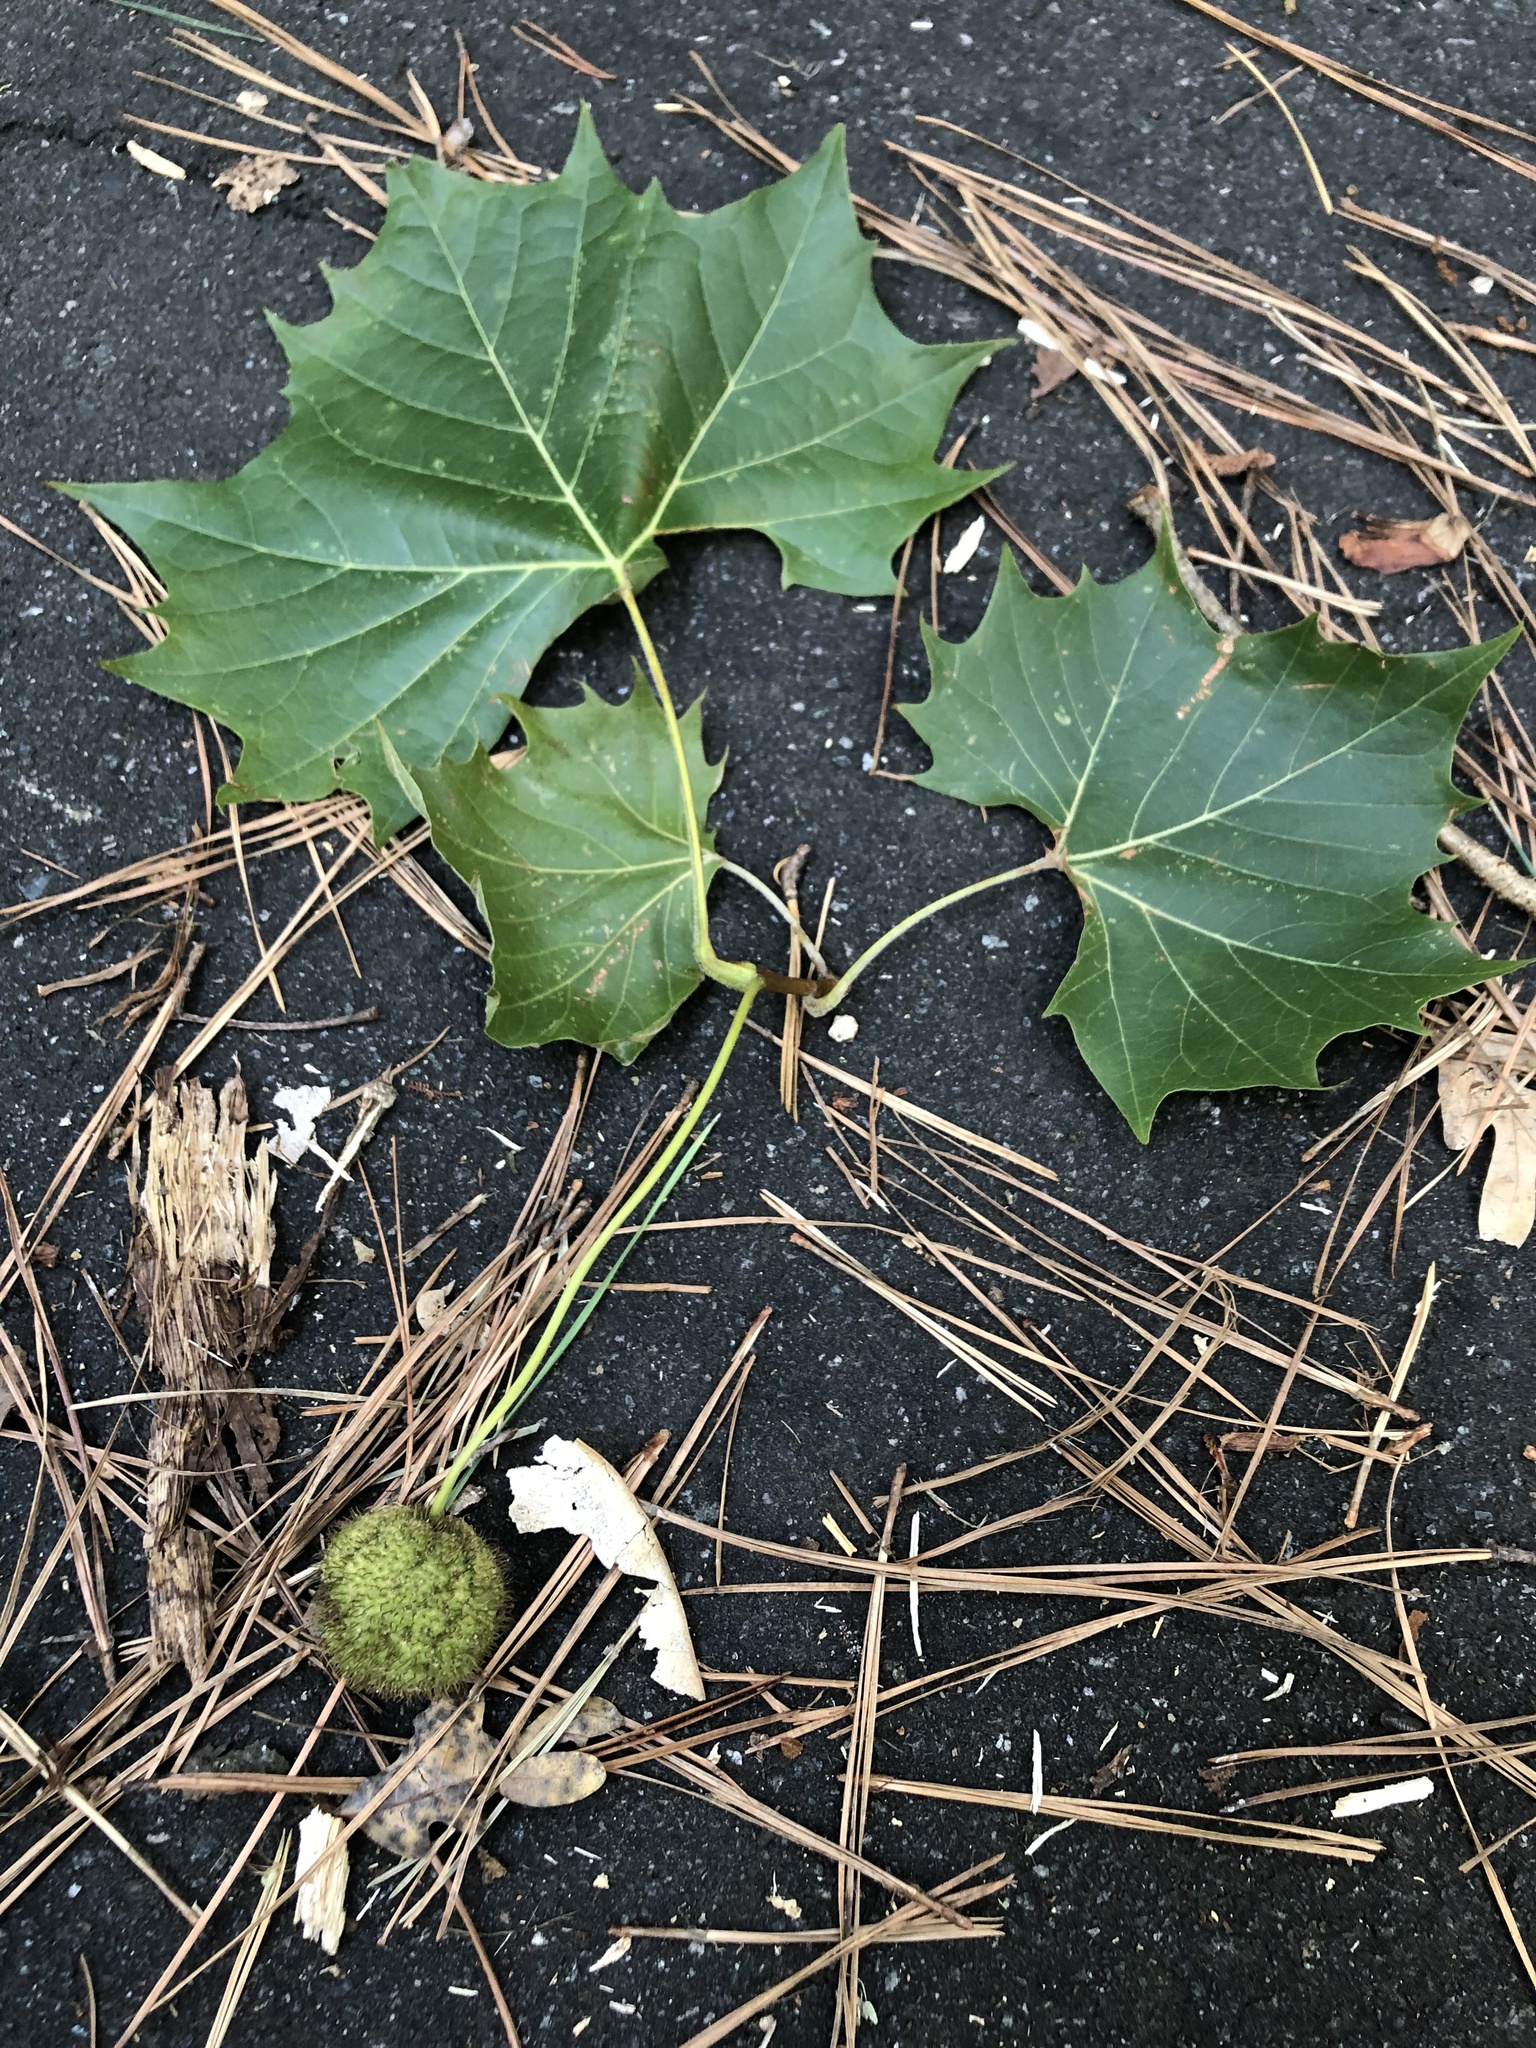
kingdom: Plantae
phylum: Tracheophyta
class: Magnoliopsida
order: Proteales
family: Platanaceae
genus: Platanus
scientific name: Platanus occidentalis
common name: American sycamore
